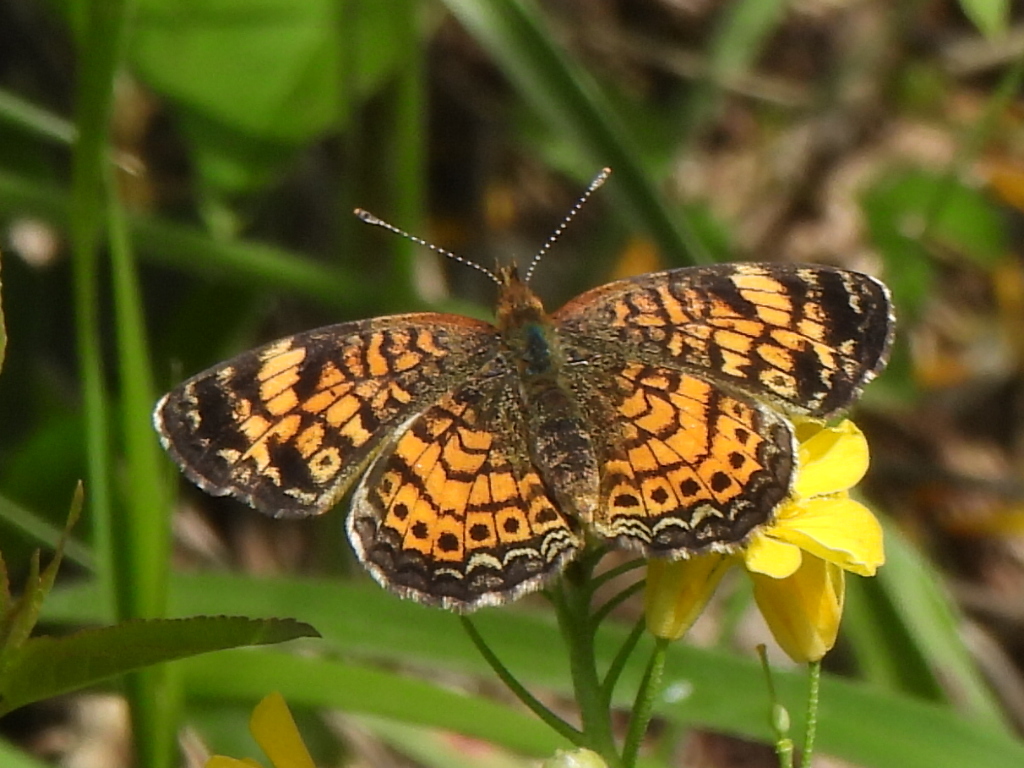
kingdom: Animalia
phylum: Arthropoda
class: Insecta
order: Lepidoptera
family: Nymphalidae
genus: Phyciodes
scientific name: Phyciodes tharos
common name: Pearl crescent
